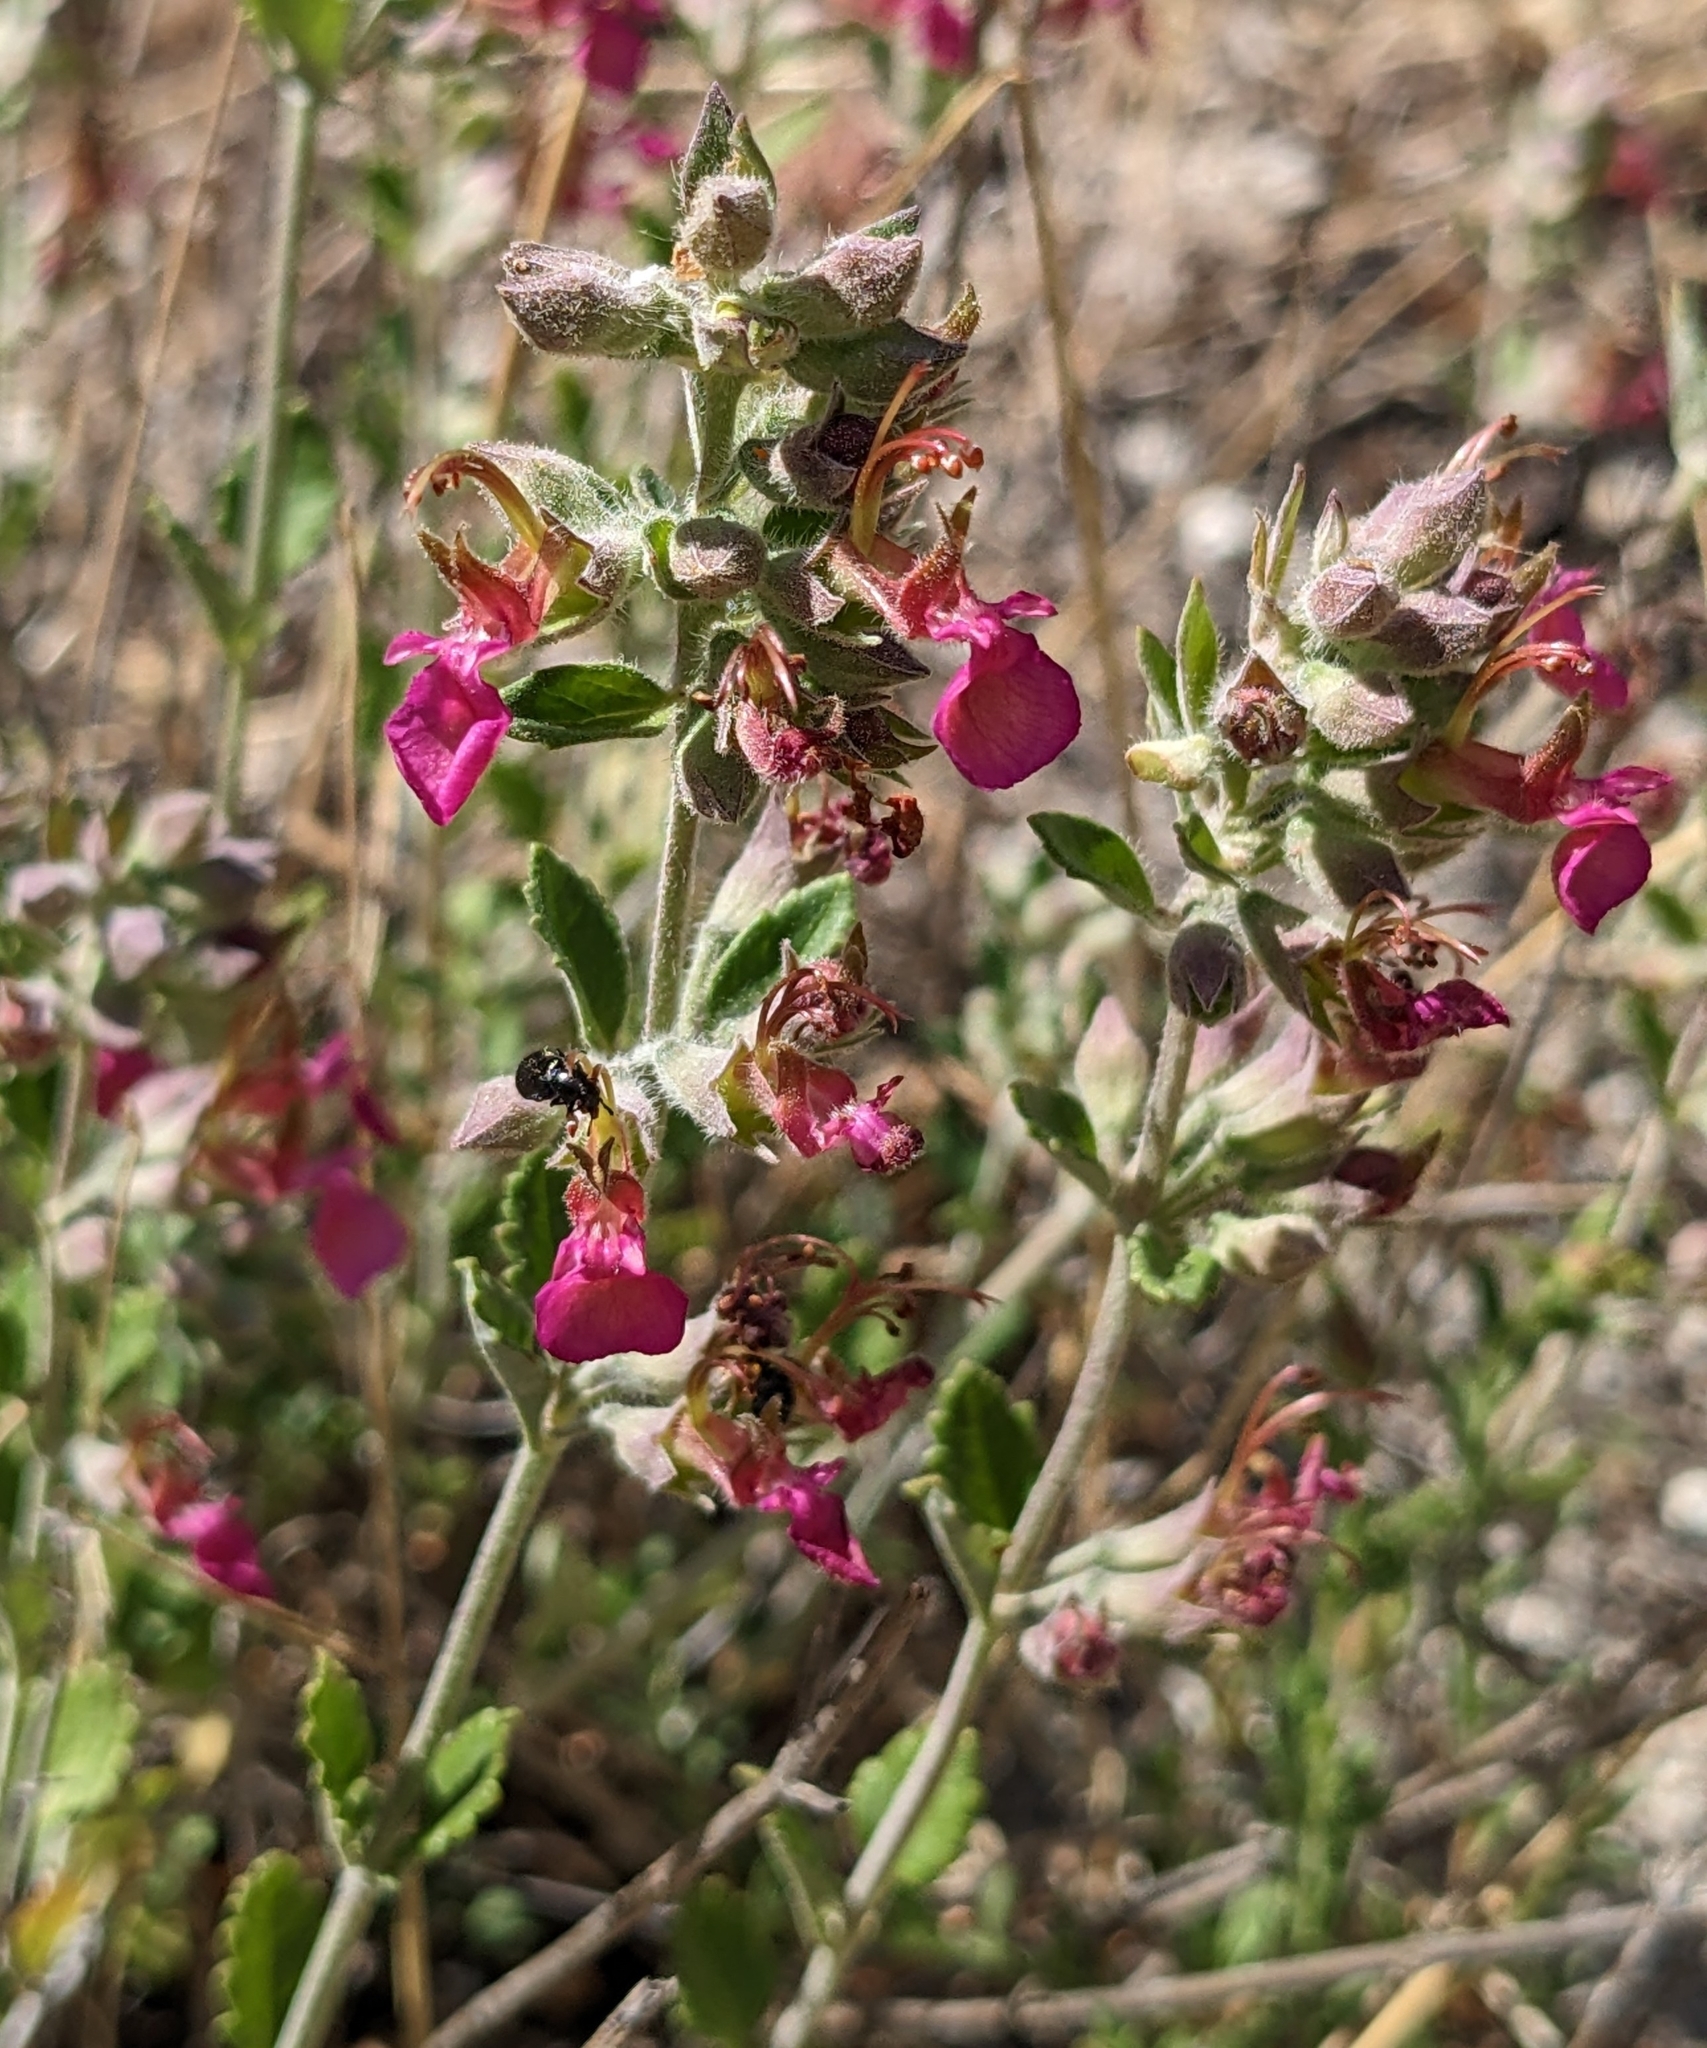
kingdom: Plantae
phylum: Tracheophyta
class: Magnoliopsida
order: Lamiales
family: Lamiaceae
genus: Teucrium
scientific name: Teucrium divaricatum
